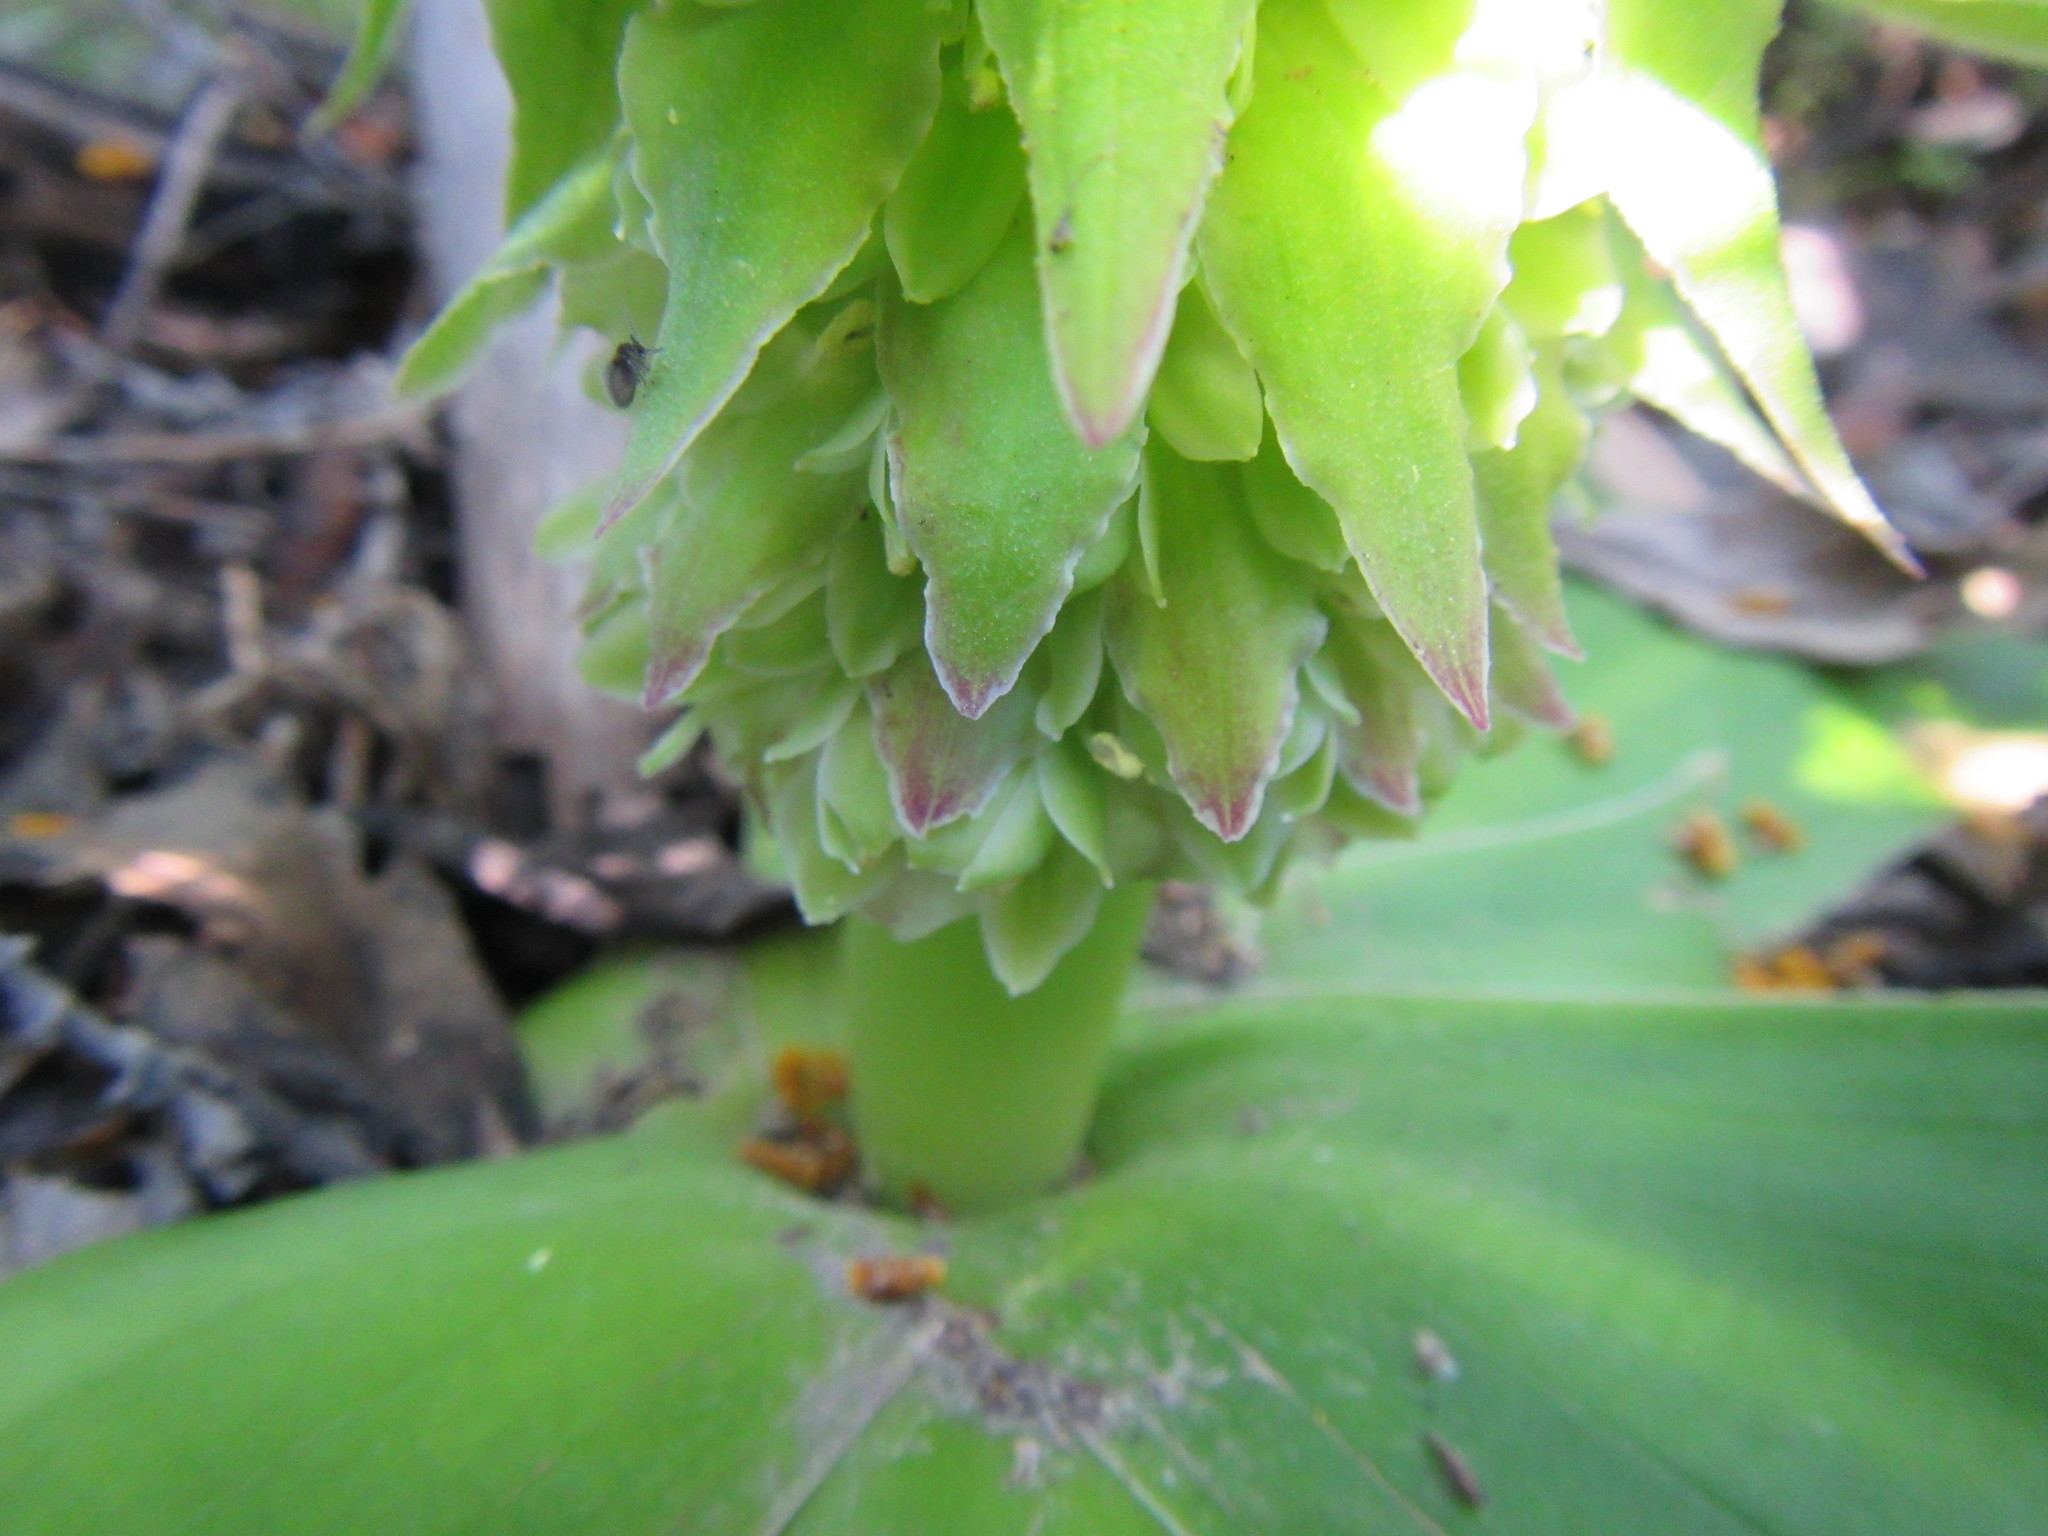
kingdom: Plantae
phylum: Tracheophyta
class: Liliopsida
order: Asparagales
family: Asparagaceae
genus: Eucomis
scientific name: Eucomis regia
